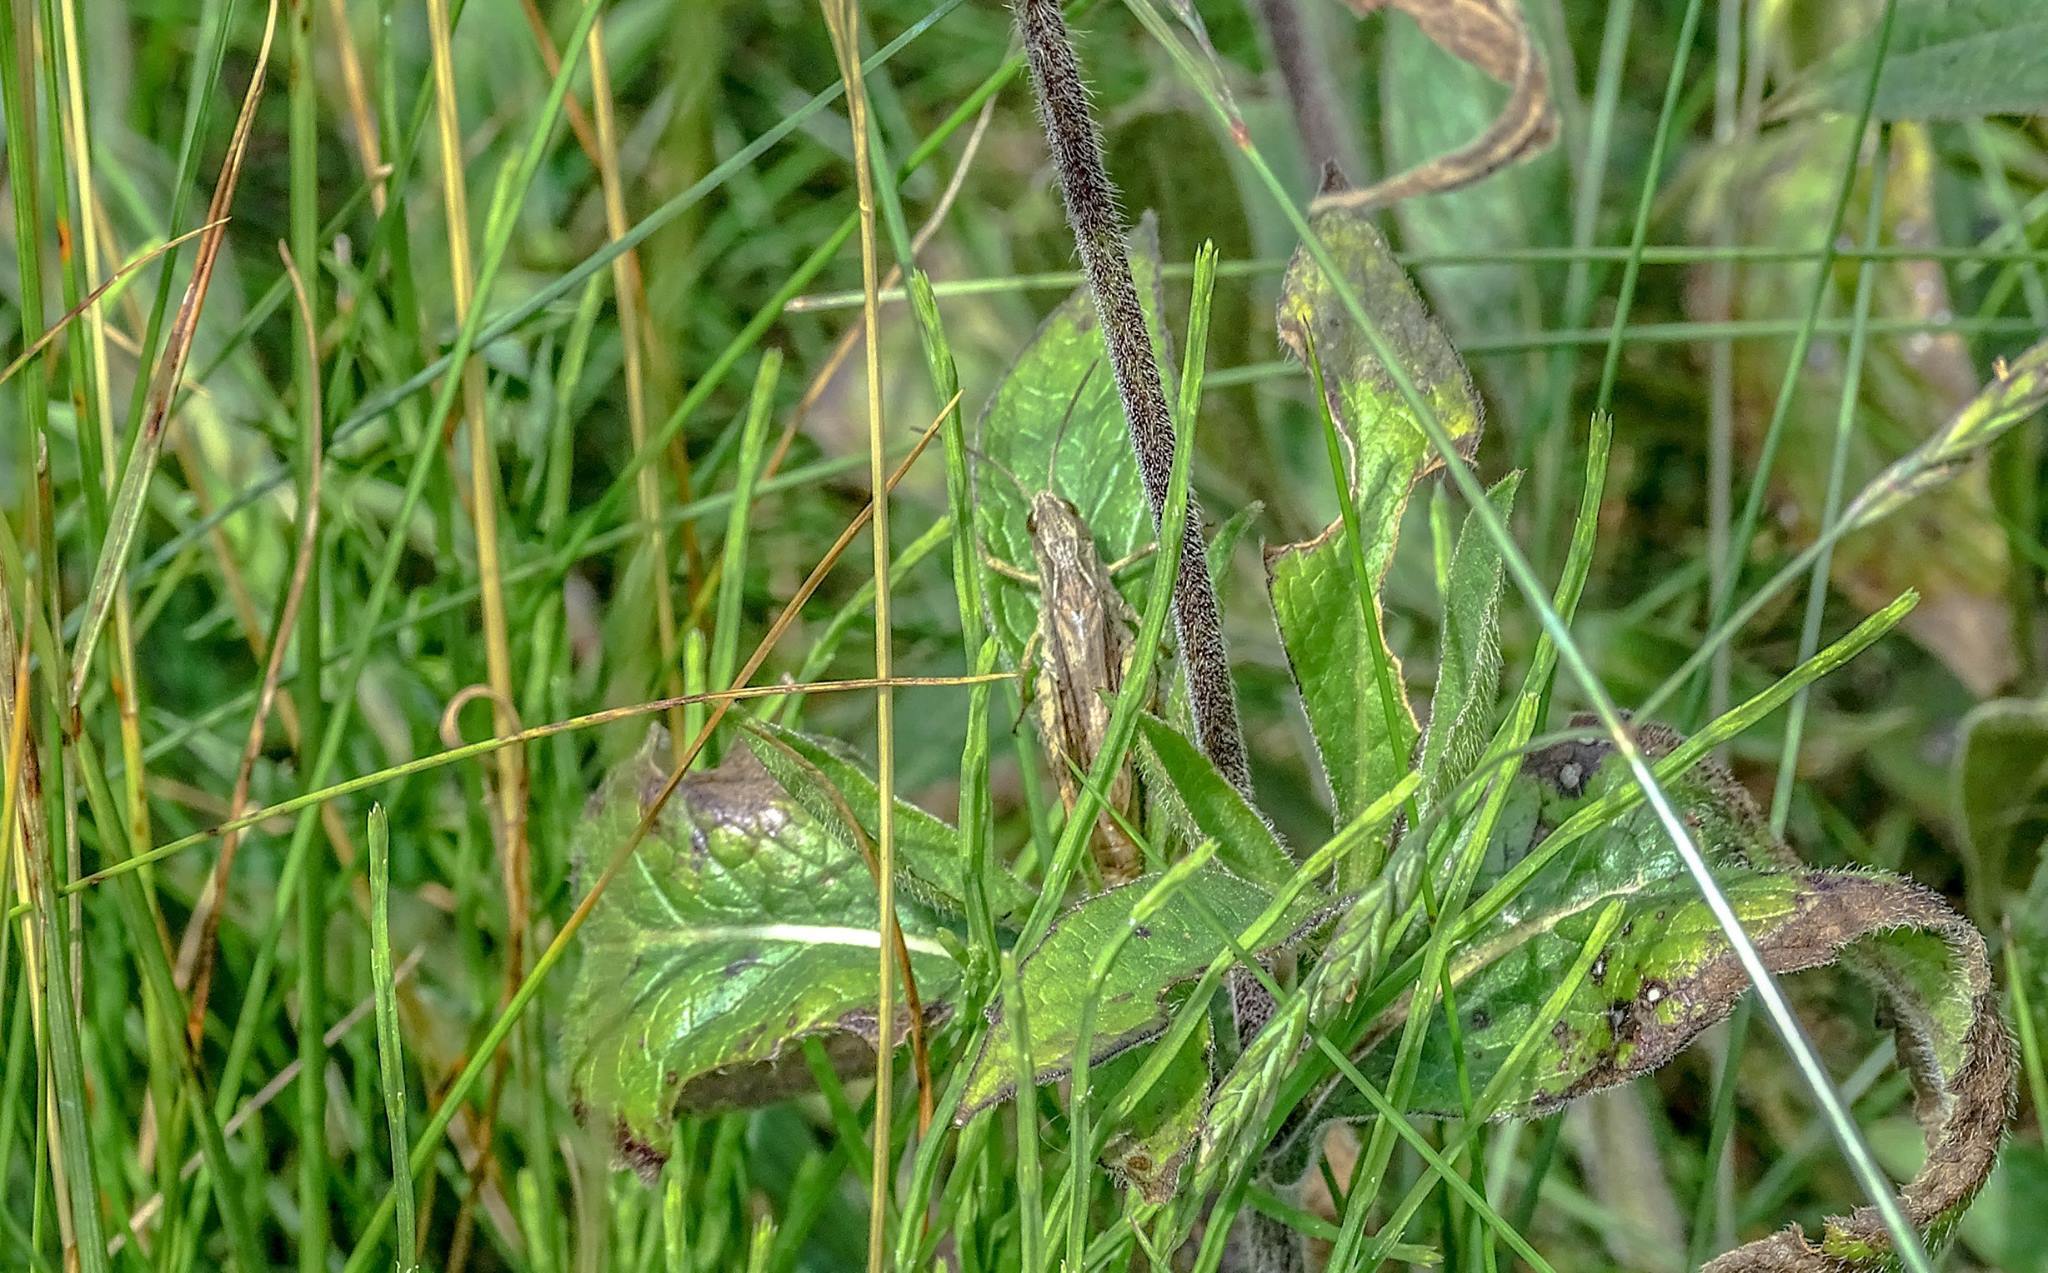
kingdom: Animalia
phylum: Arthropoda
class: Insecta
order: Orthoptera
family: Acrididae
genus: Chorthippus
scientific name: Chorthippus apricarius
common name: Upland field grasshopper
